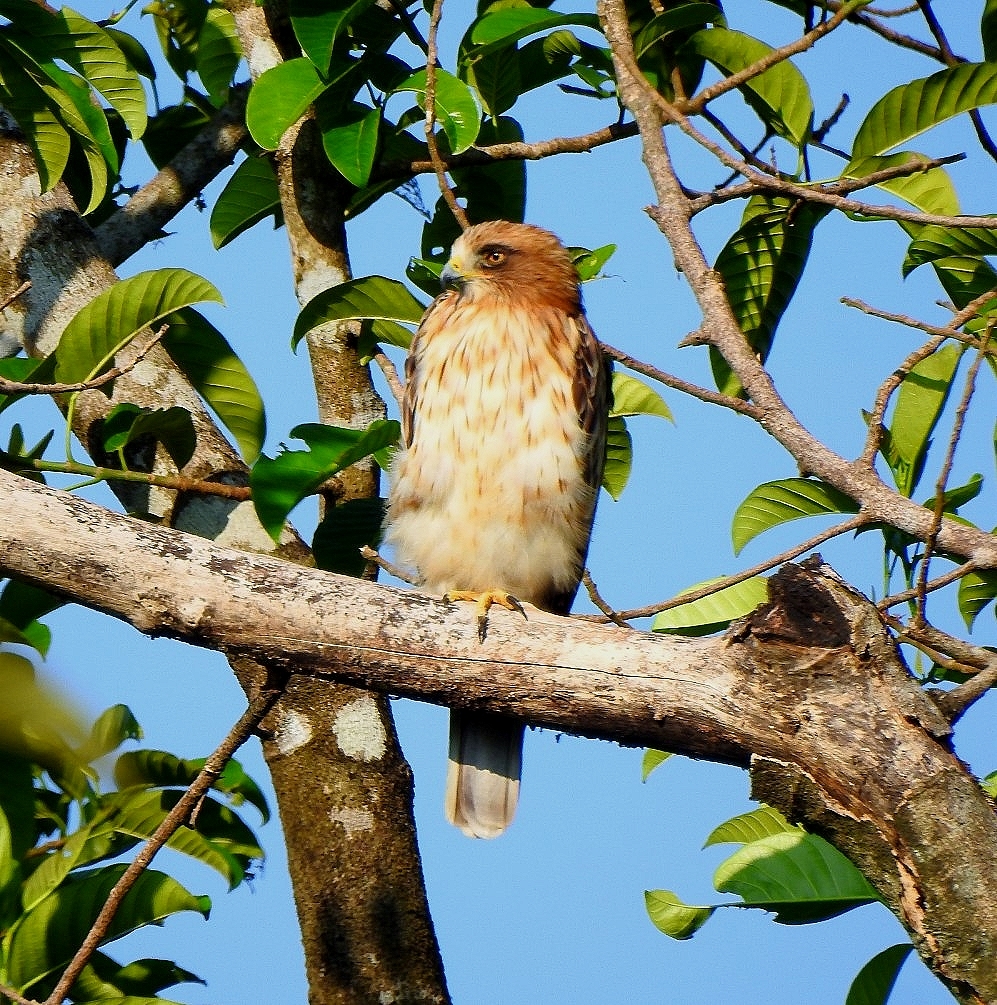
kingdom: Animalia
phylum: Chordata
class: Aves
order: Accipitriformes
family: Accipitridae
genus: Hieraaetus
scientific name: Hieraaetus pennatus
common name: Booted eagle
